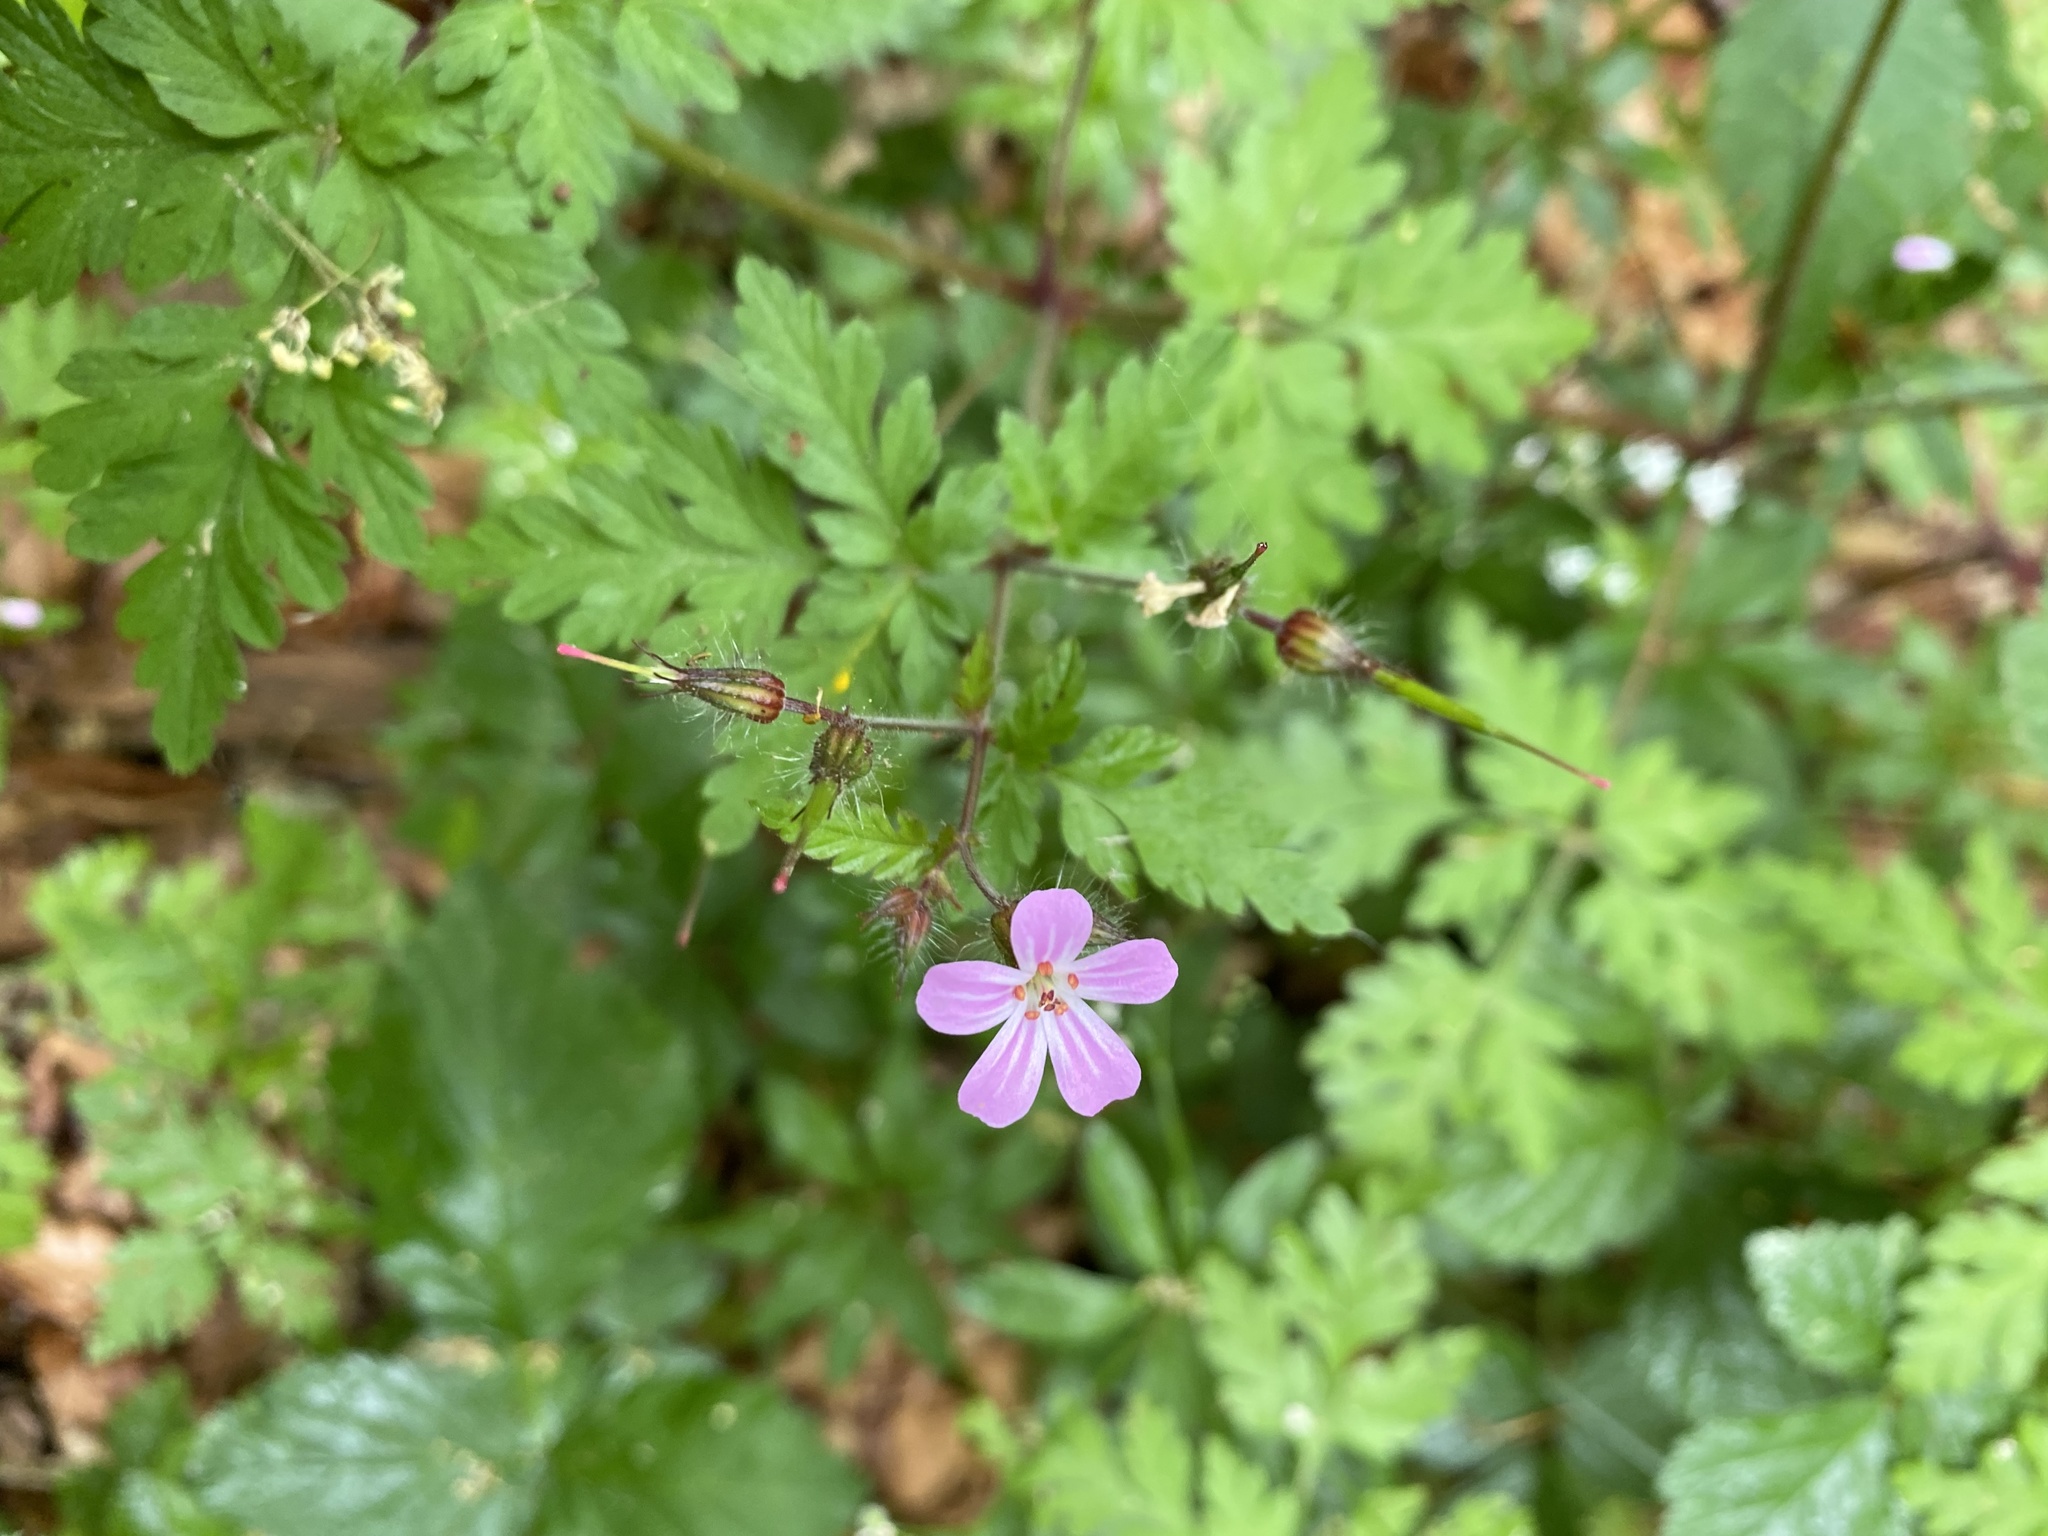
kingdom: Plantae
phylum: Tracheophyta
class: Magnoliopsida
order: Geraniales
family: Geraniaceae
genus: Geranium
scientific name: Geranium robertianum
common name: Herb-robert
